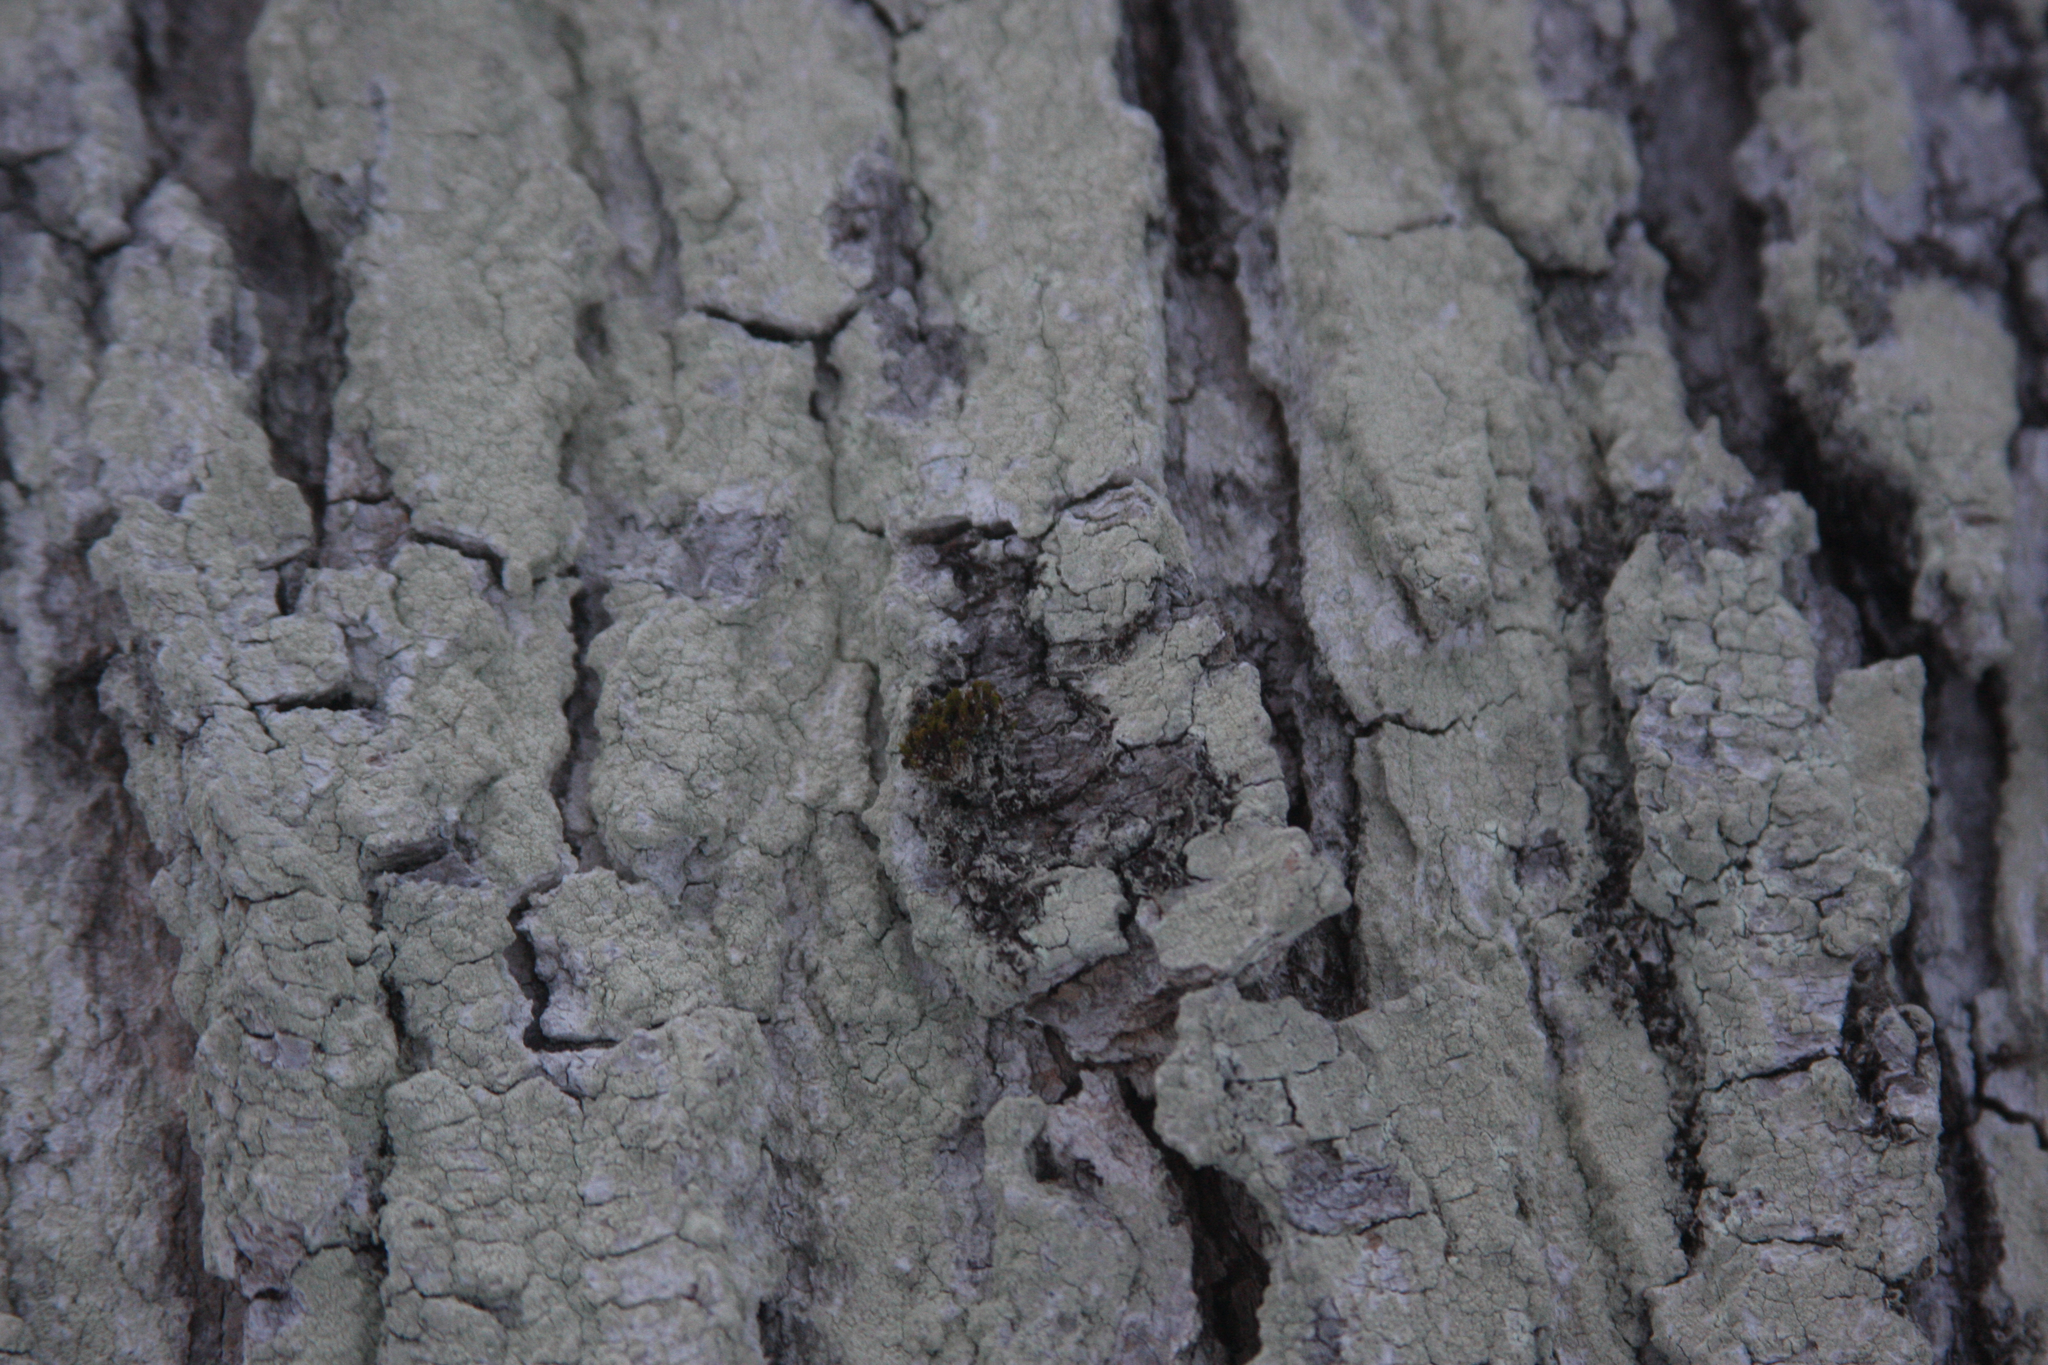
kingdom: Plantae
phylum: Bryophyta
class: Bryopsida
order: Orthotrichales
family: Orthotrichaceae
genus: Ulota
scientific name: Ulota crispa
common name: Crisped pincushion moss
